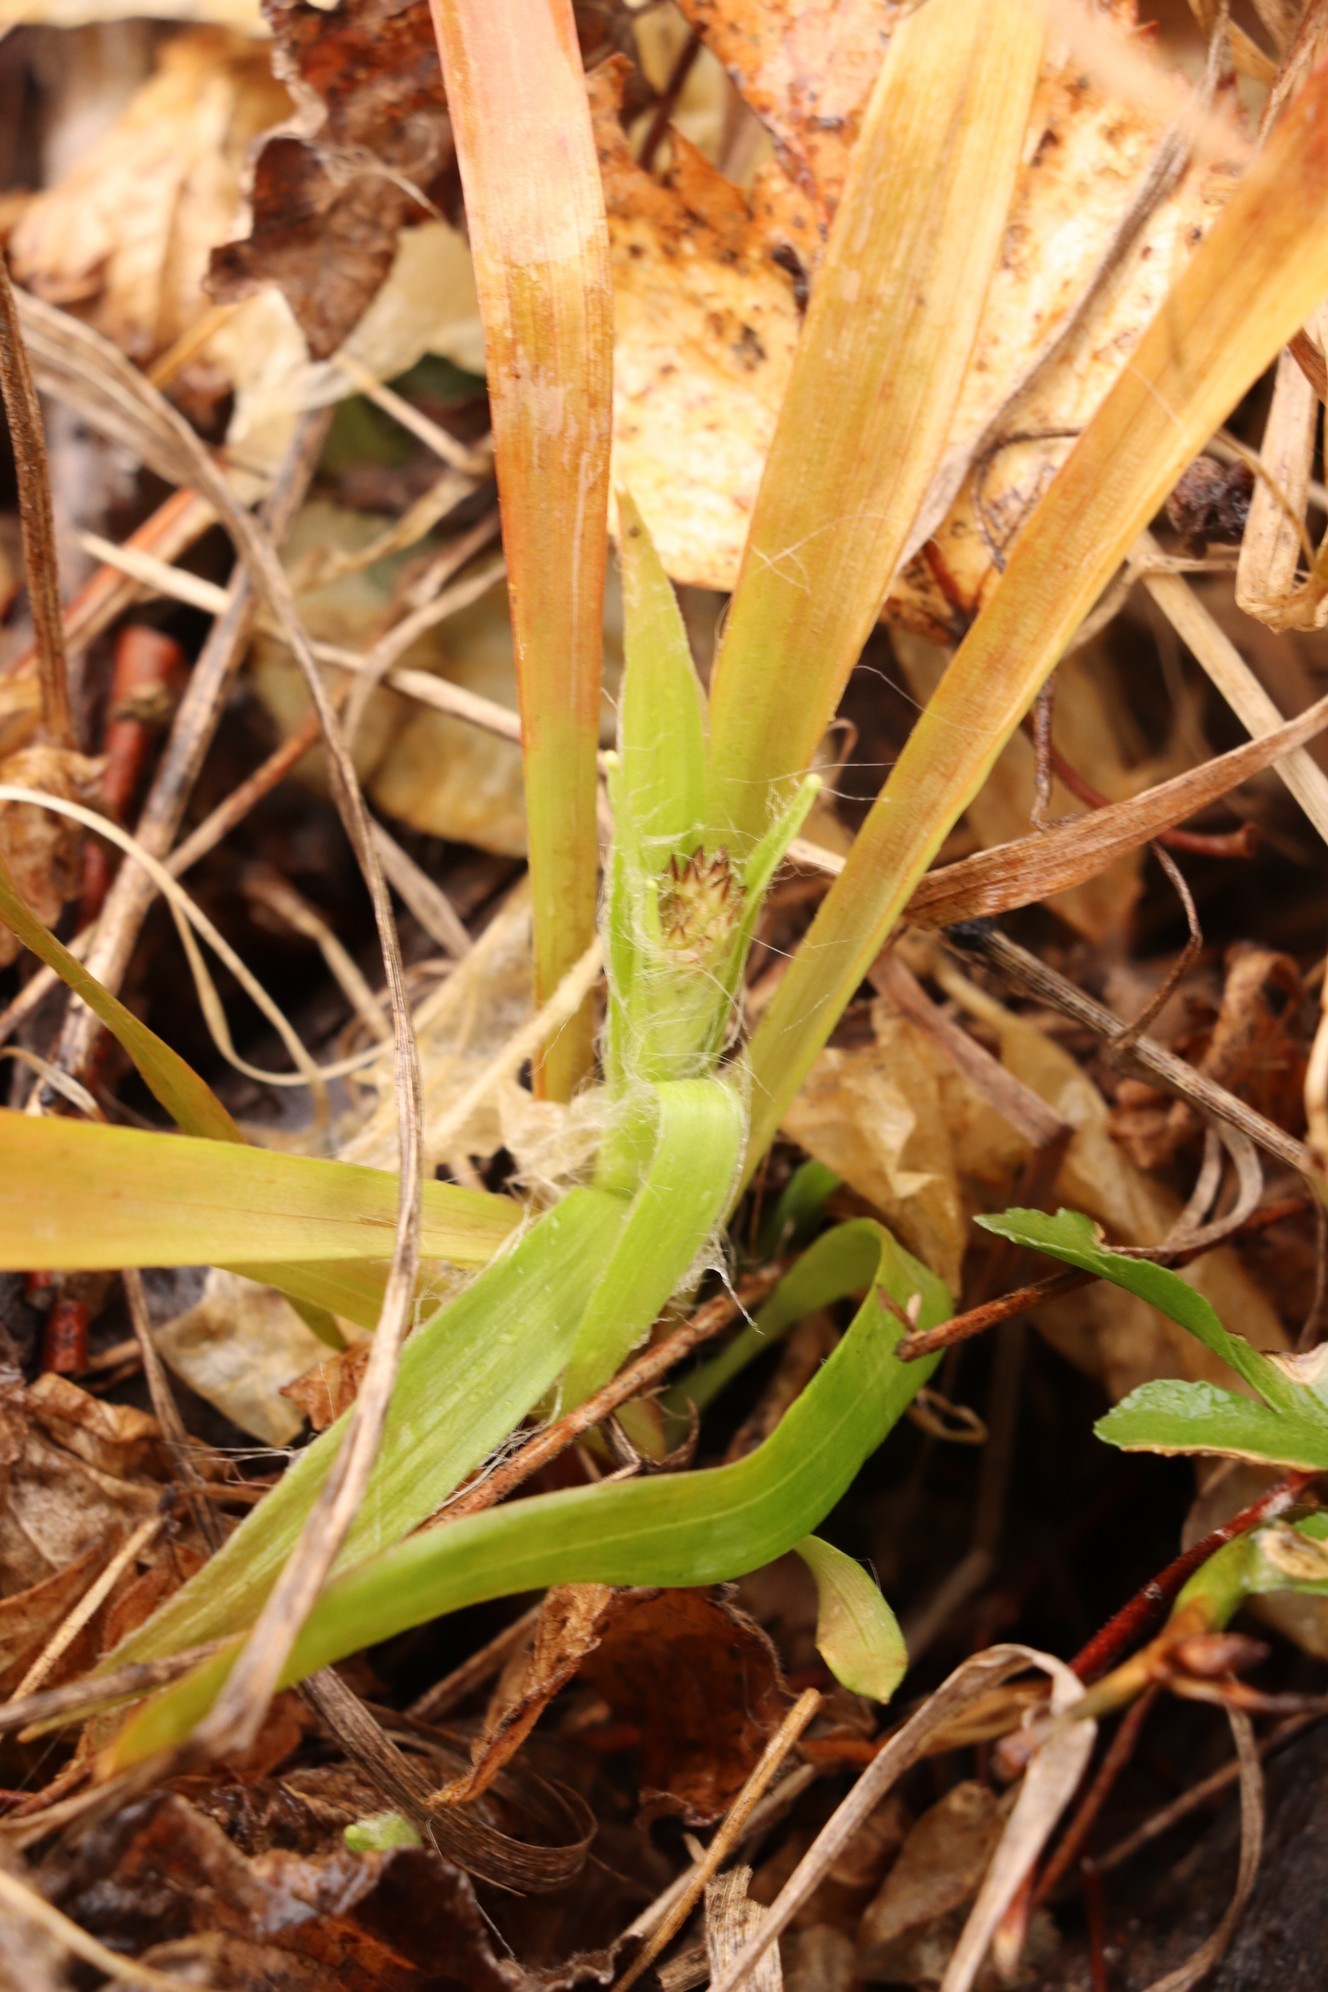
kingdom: Plantae
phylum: Tracheophyta
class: Liliopsida
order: Poales
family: Juncaceae
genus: Luzula
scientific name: Luzula pilosa
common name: Hairy wood-rush
